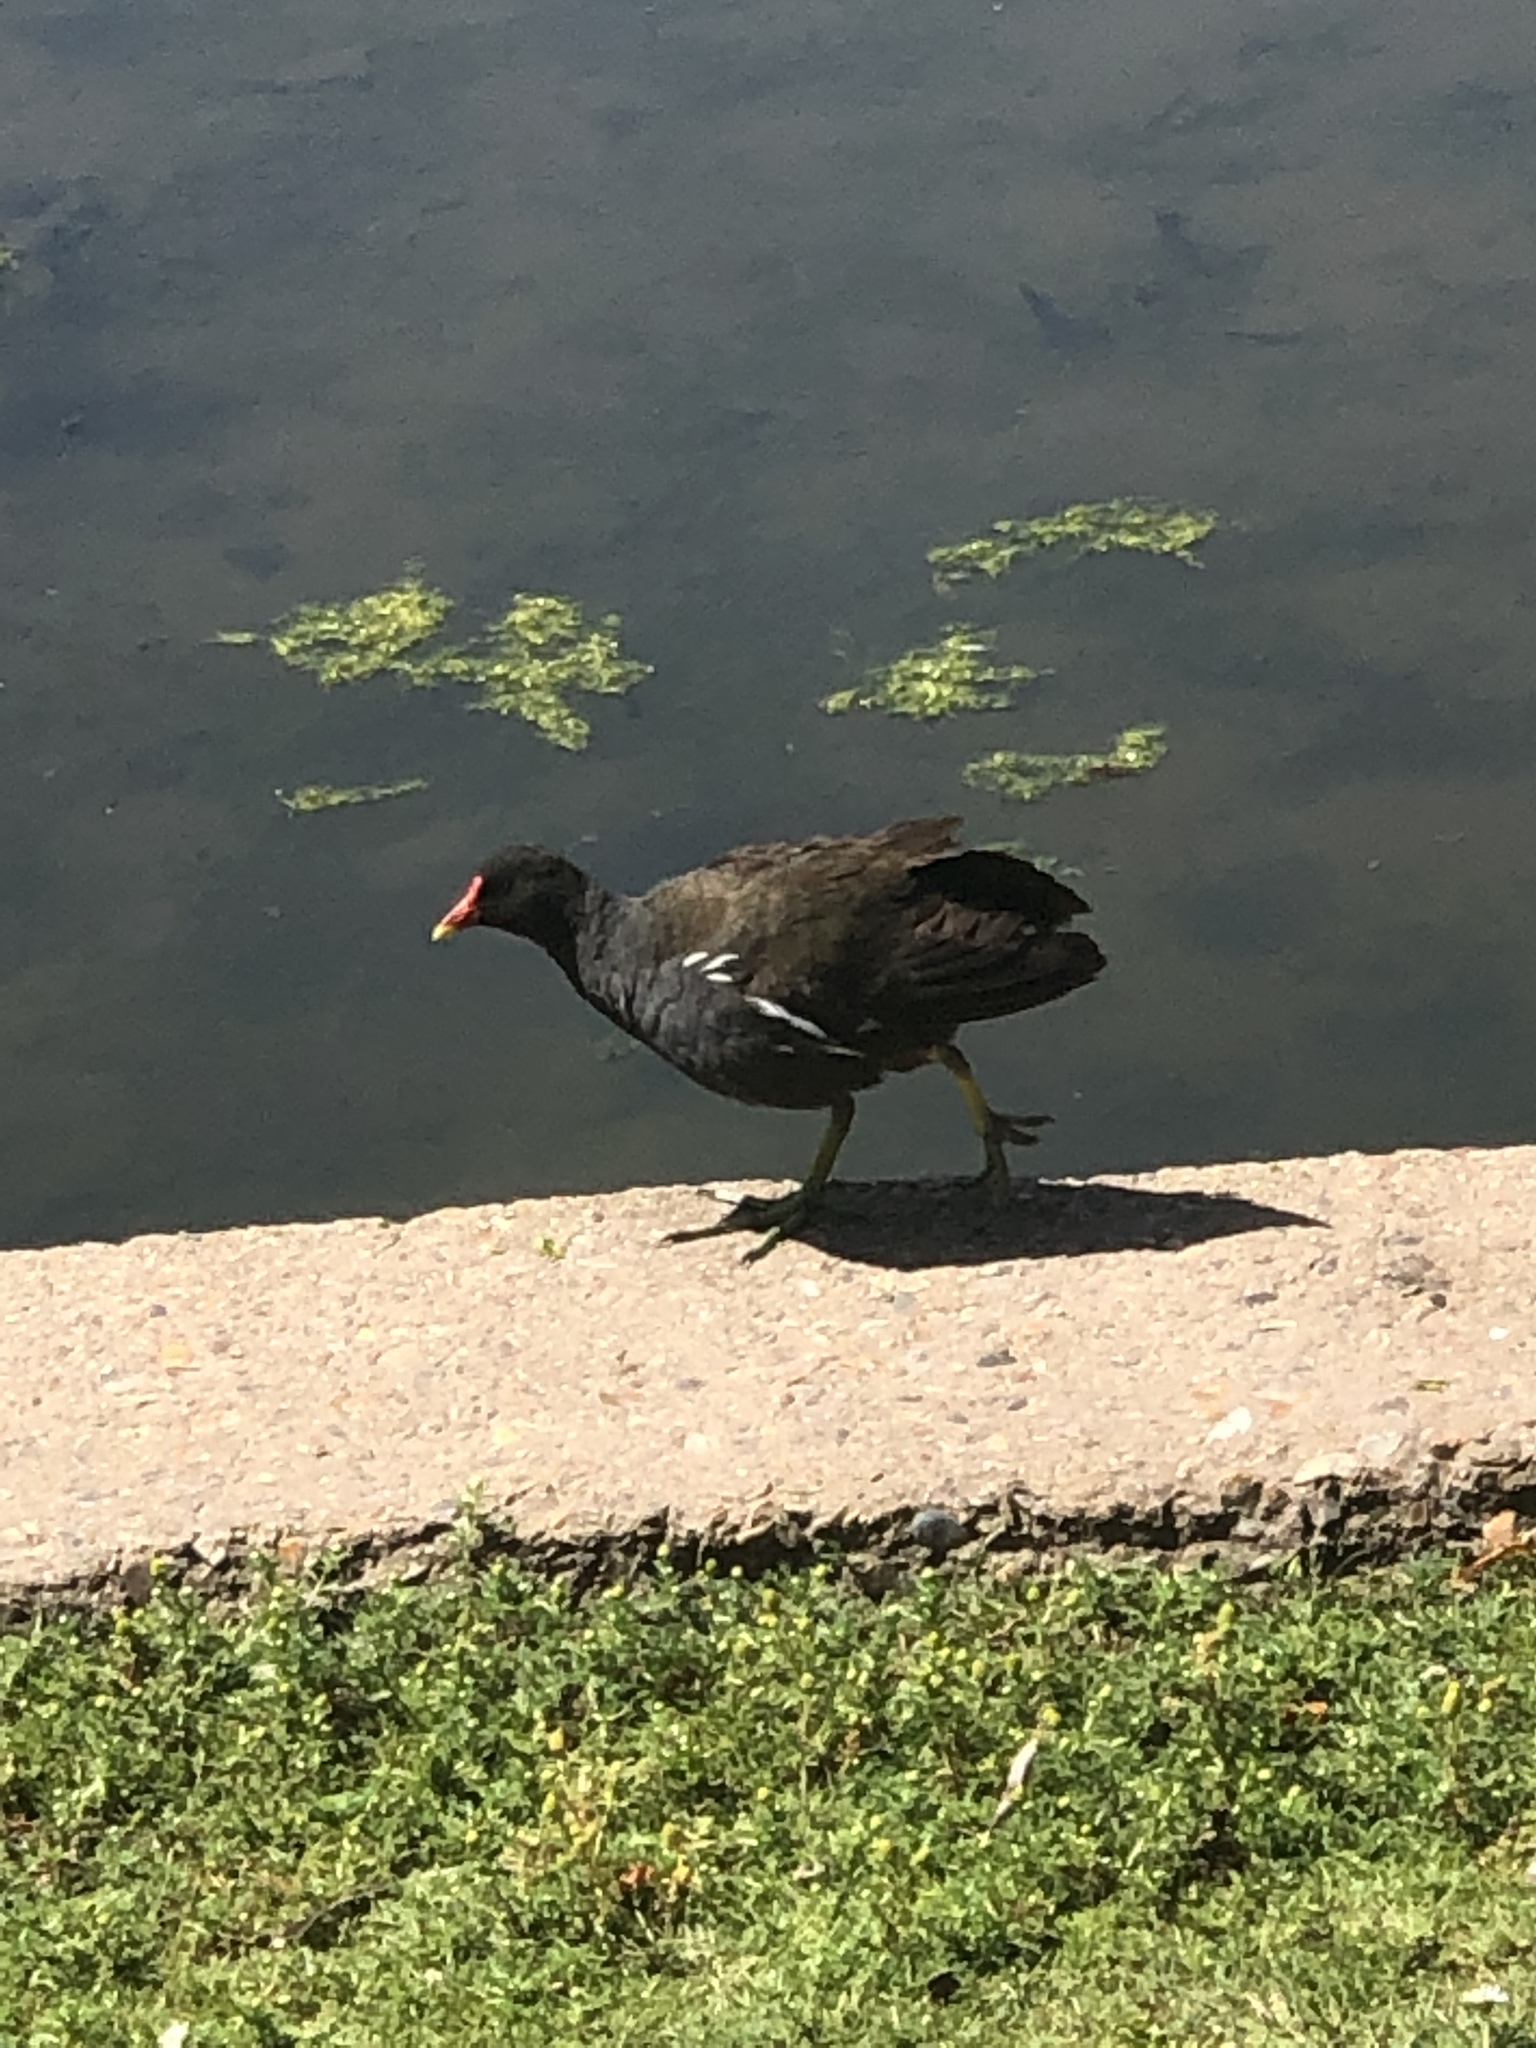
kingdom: Animalia
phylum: Chordata
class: Aves
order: Gruiformes
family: Rallidae
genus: Gallinula
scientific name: Gallinula chloropus
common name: Common moorhen
